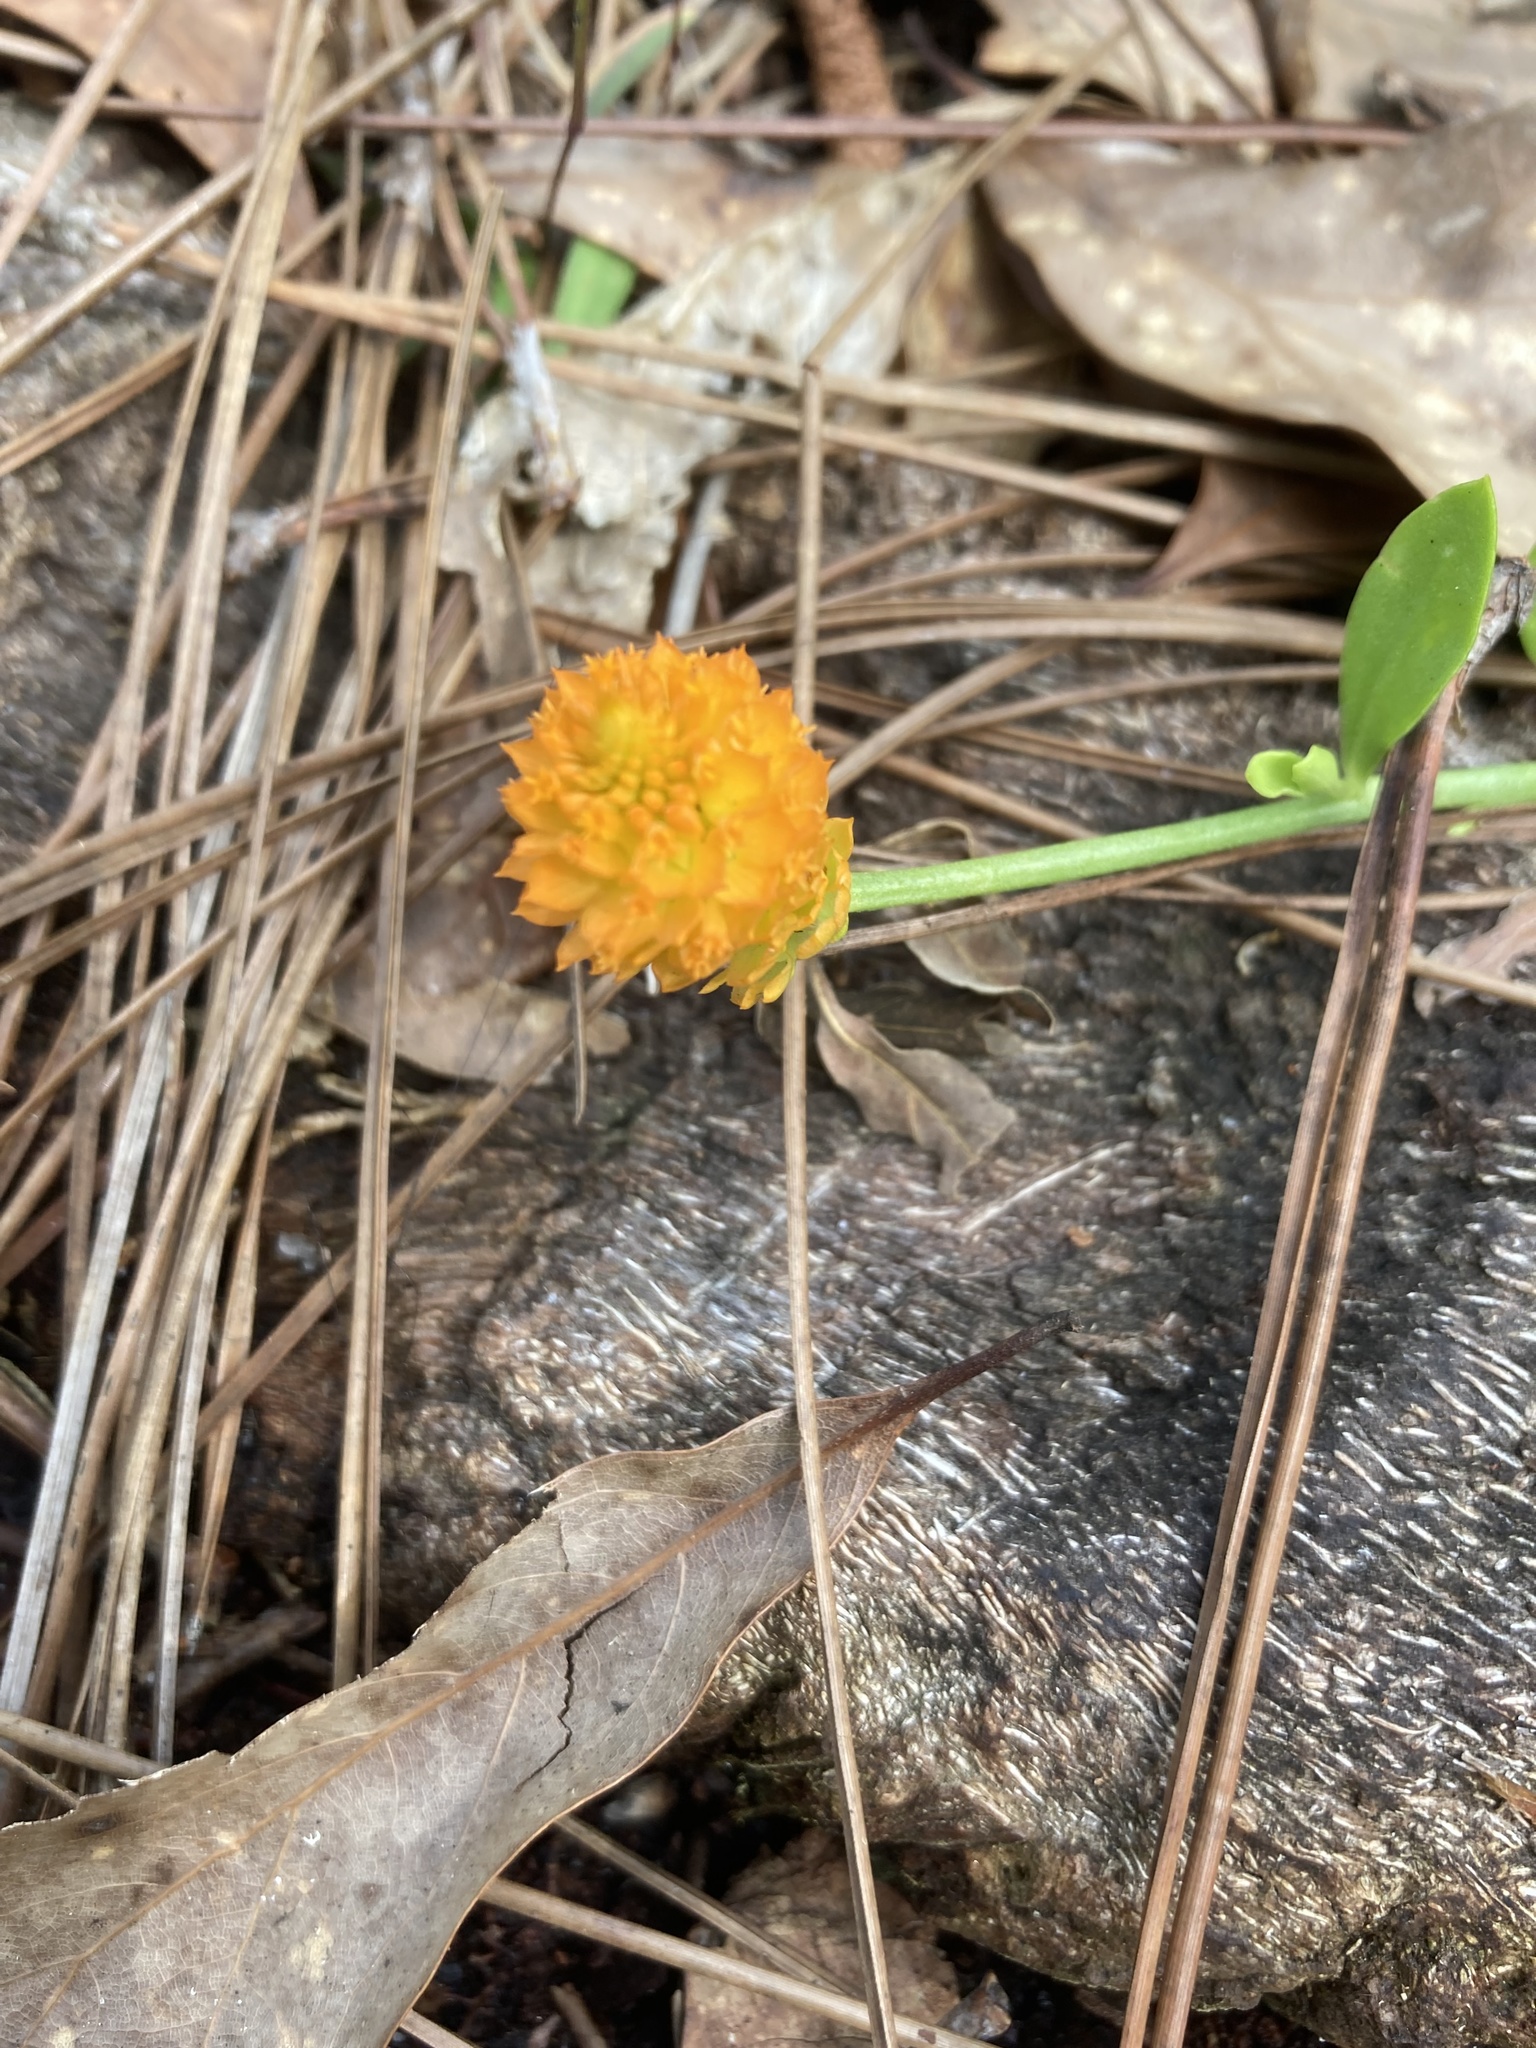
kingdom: Plantae
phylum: Tracheophyta
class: Magnoliopsida
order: Fabales
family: Polygalaceae
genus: Polygala
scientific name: Polygala lutea
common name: Orange milkwort
